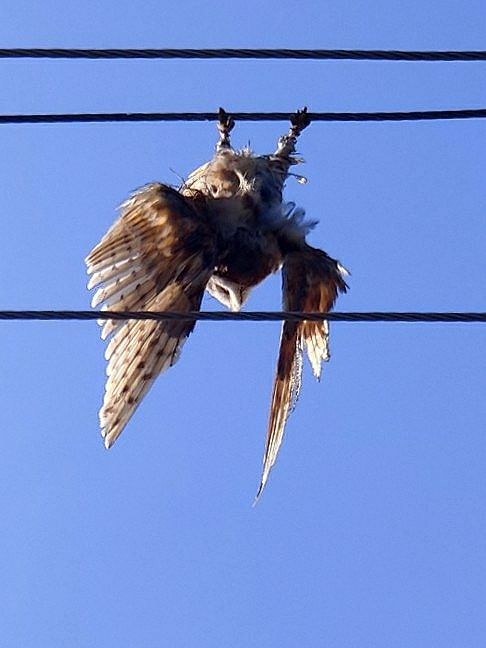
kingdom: Animalia
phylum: Chordata
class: Aves
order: Strigiformes
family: Tytonidae
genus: Tyto
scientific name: Tyto javanica
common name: Eastern barn owl
